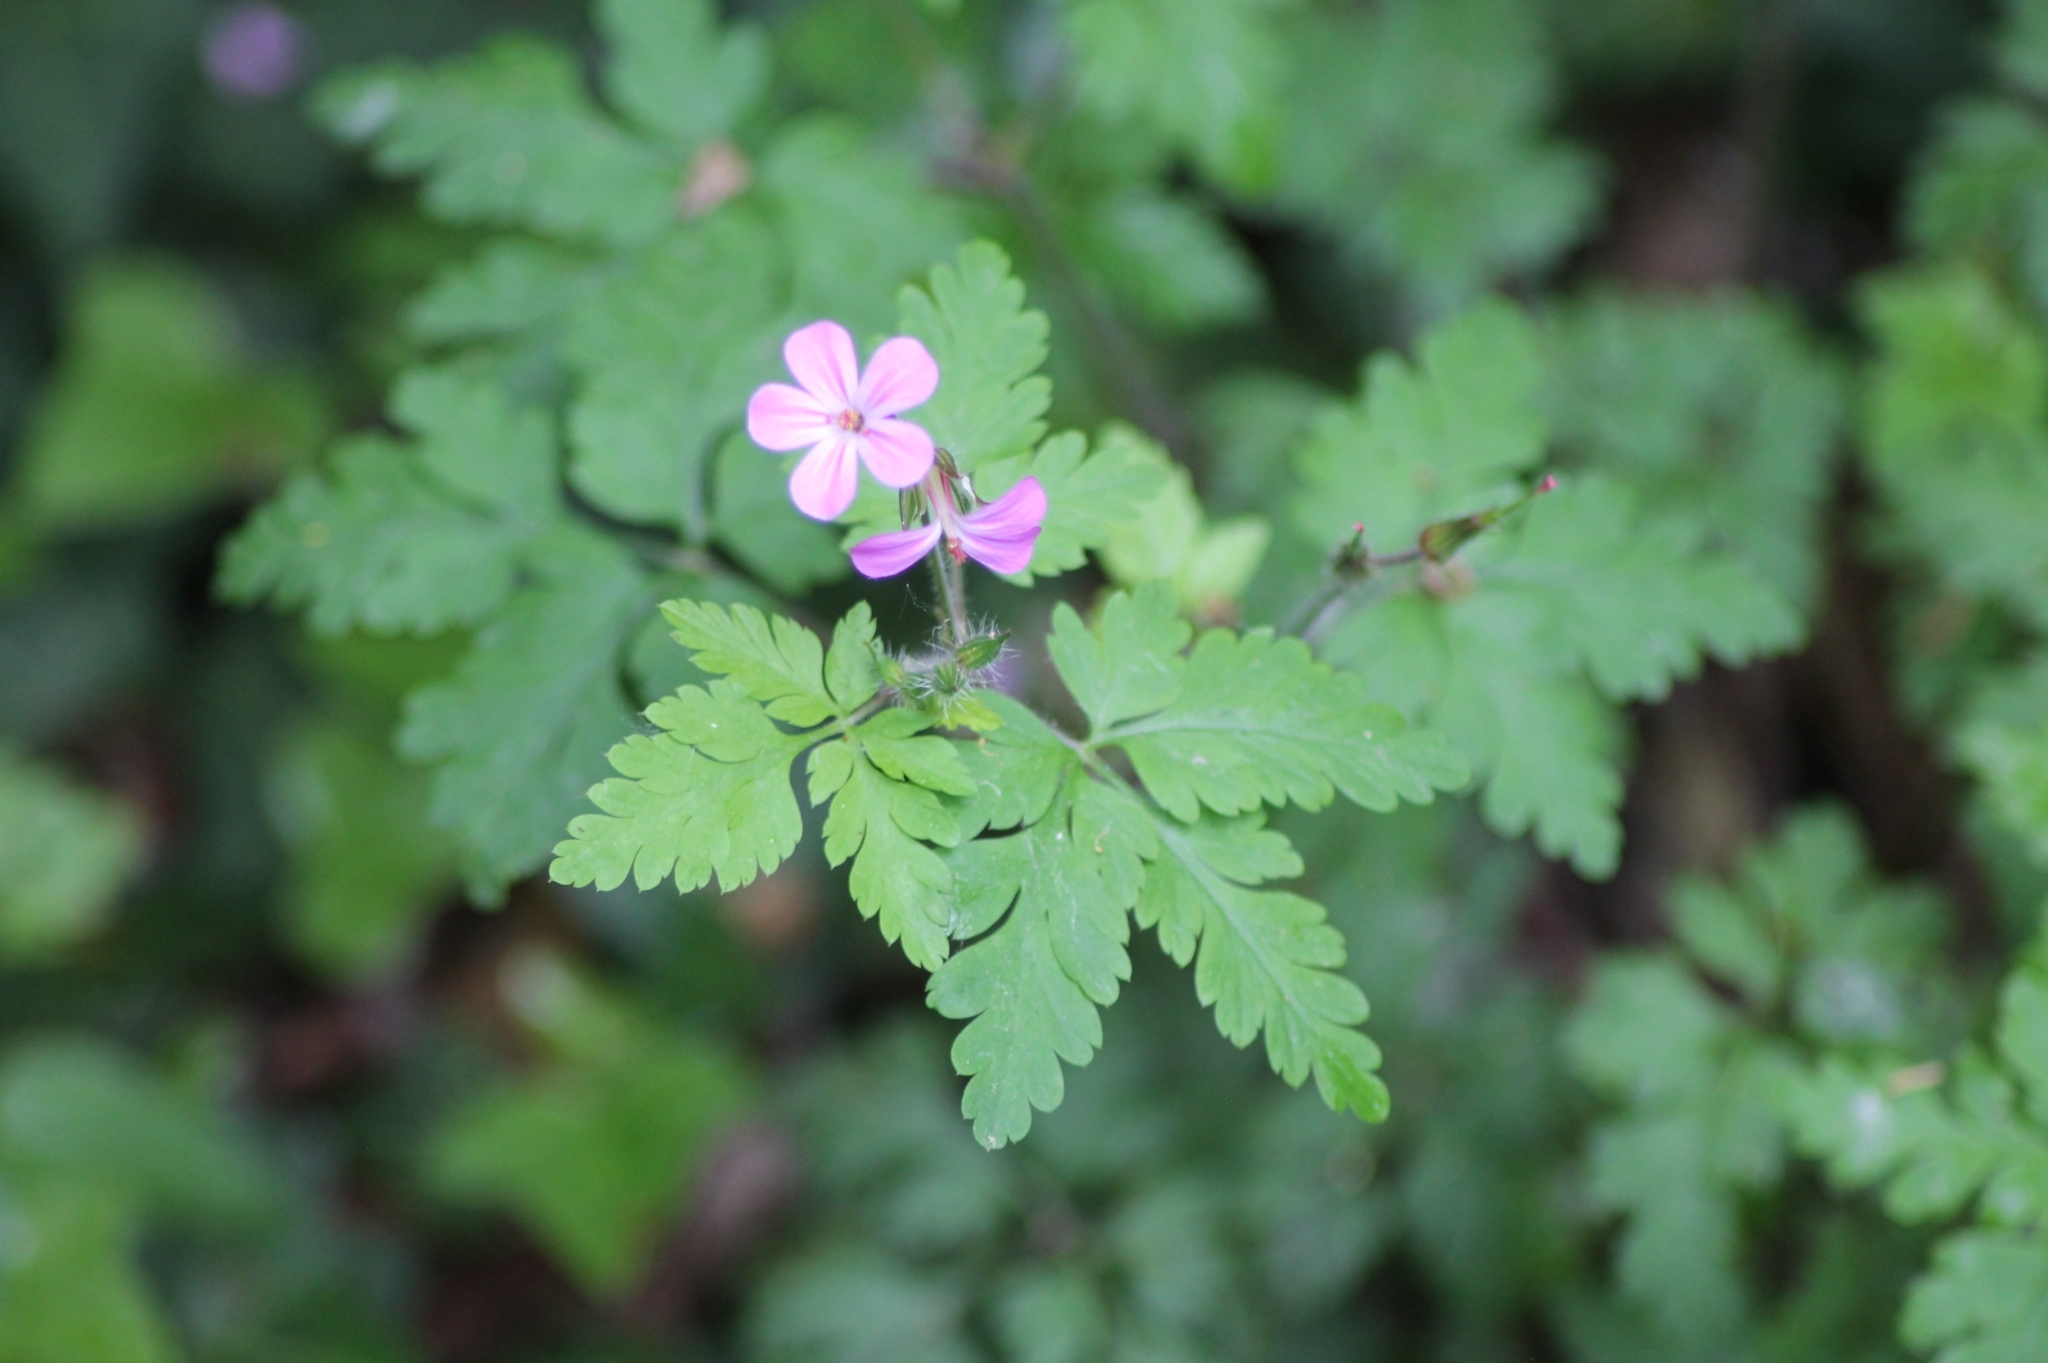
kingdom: Plantae
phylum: Tracheophyta
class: Magnoliopsida
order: Geraniales
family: Geraniaceae
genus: Geranium
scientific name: Geranium robertianum
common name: Herb-robert
